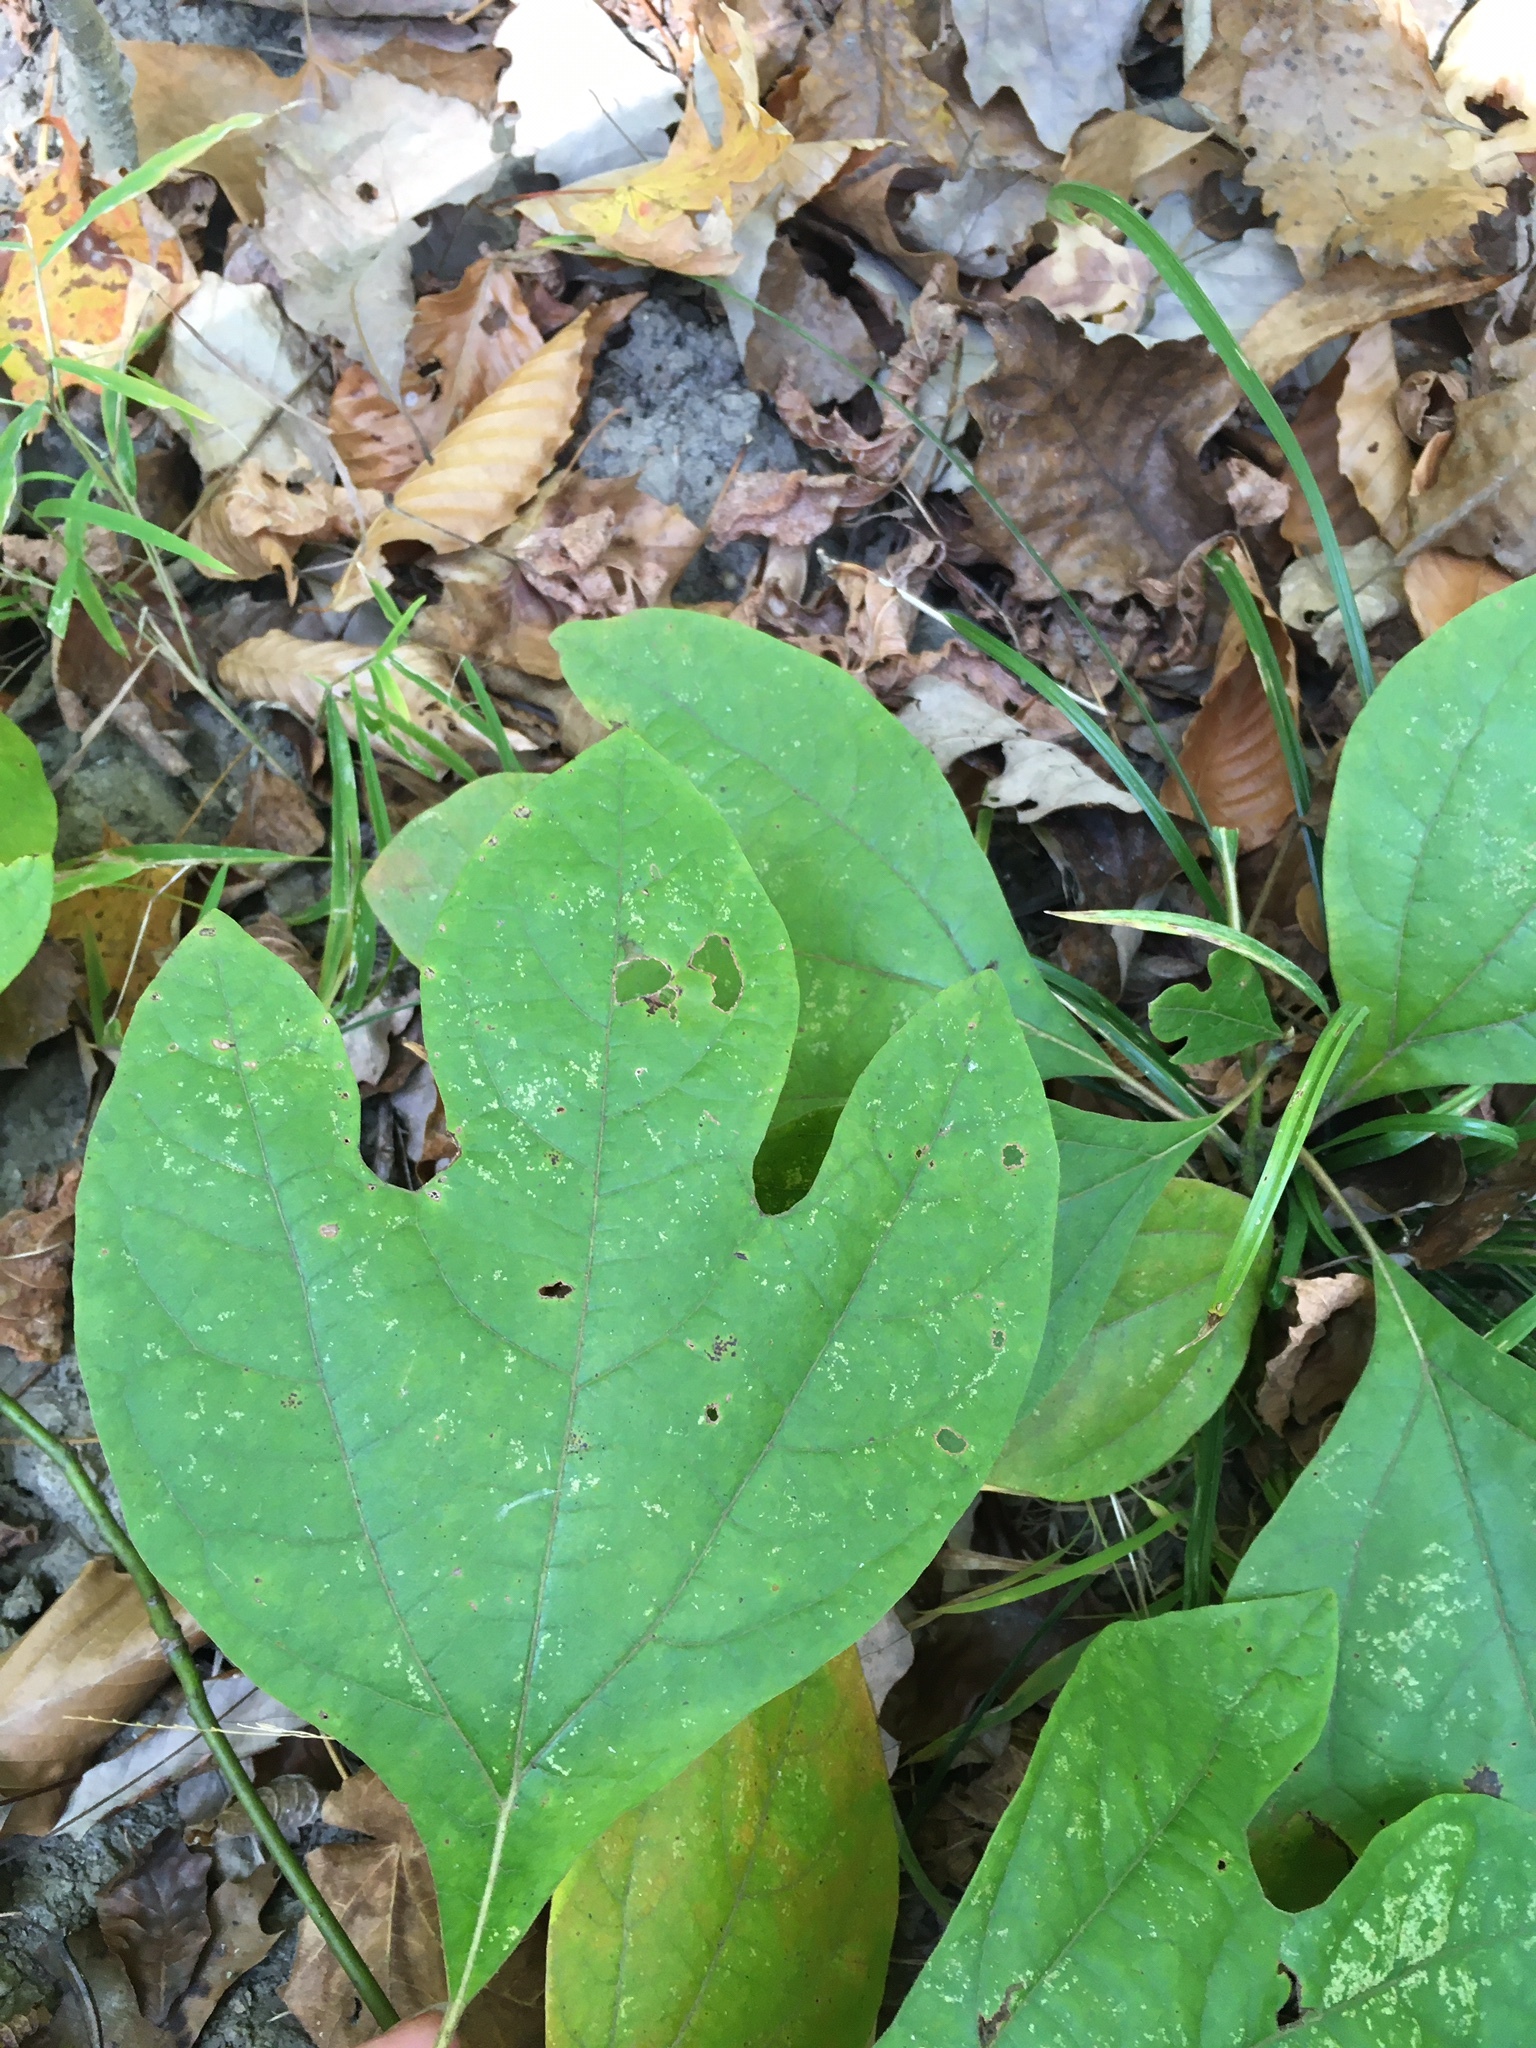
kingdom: Plantae
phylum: Tracheophyta
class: Magnoliopsida
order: Laurales
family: Lauraceae
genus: Sassafras
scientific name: Sassafras albidum
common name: Sassafras
